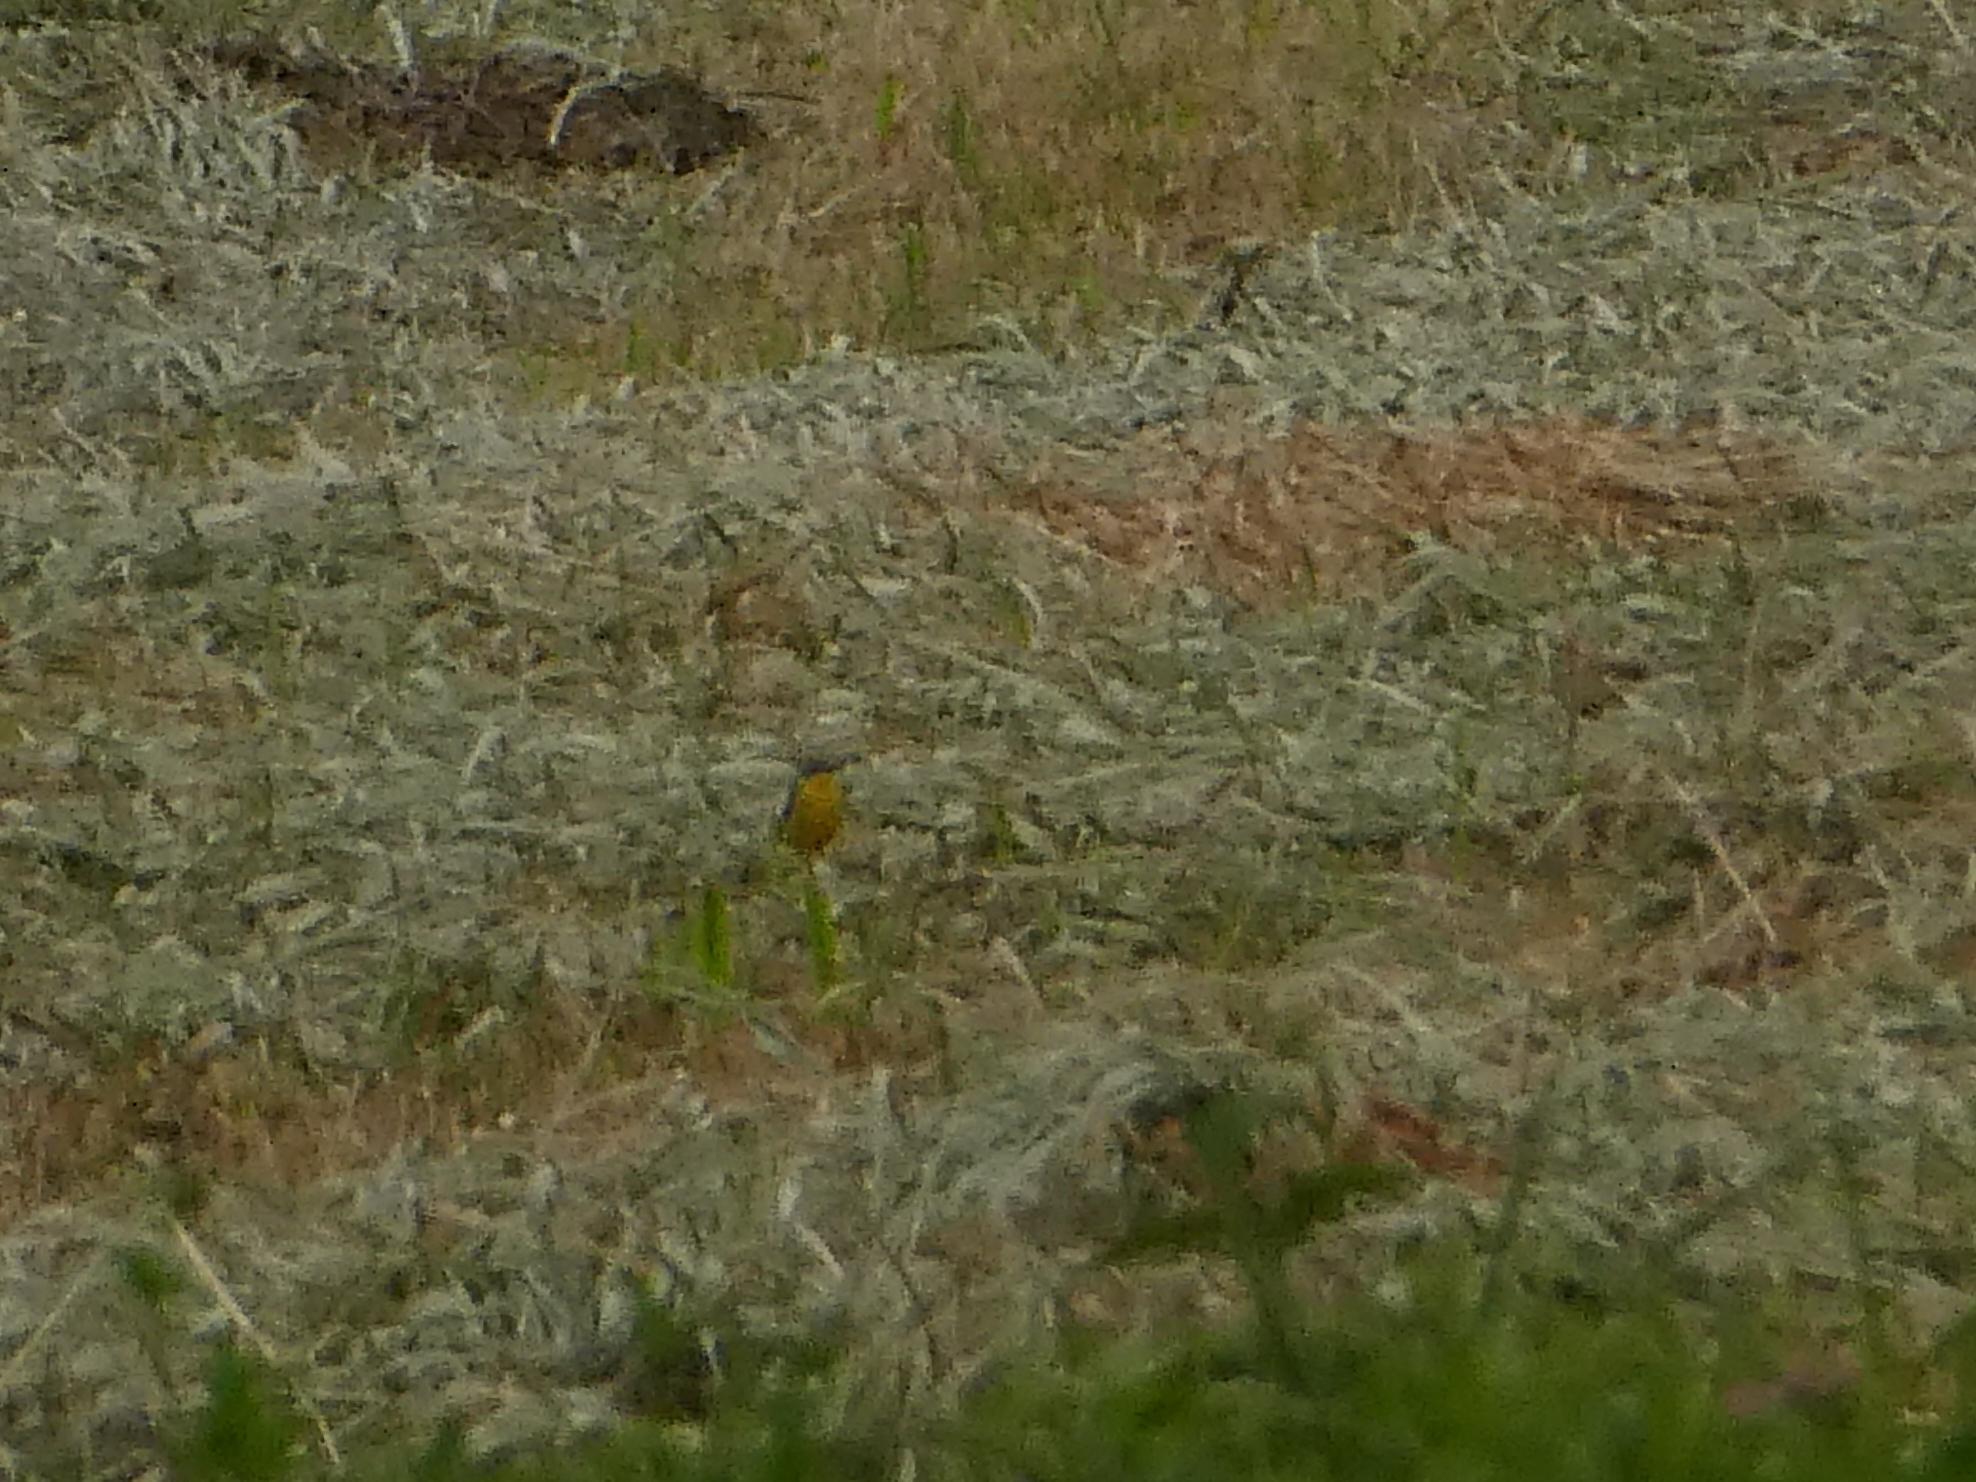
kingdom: Animalia
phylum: Chordata
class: Aves
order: Passeriformes
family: Motacillidae
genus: Motacilla
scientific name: Motacilla flava
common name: Western yellow wagtail
